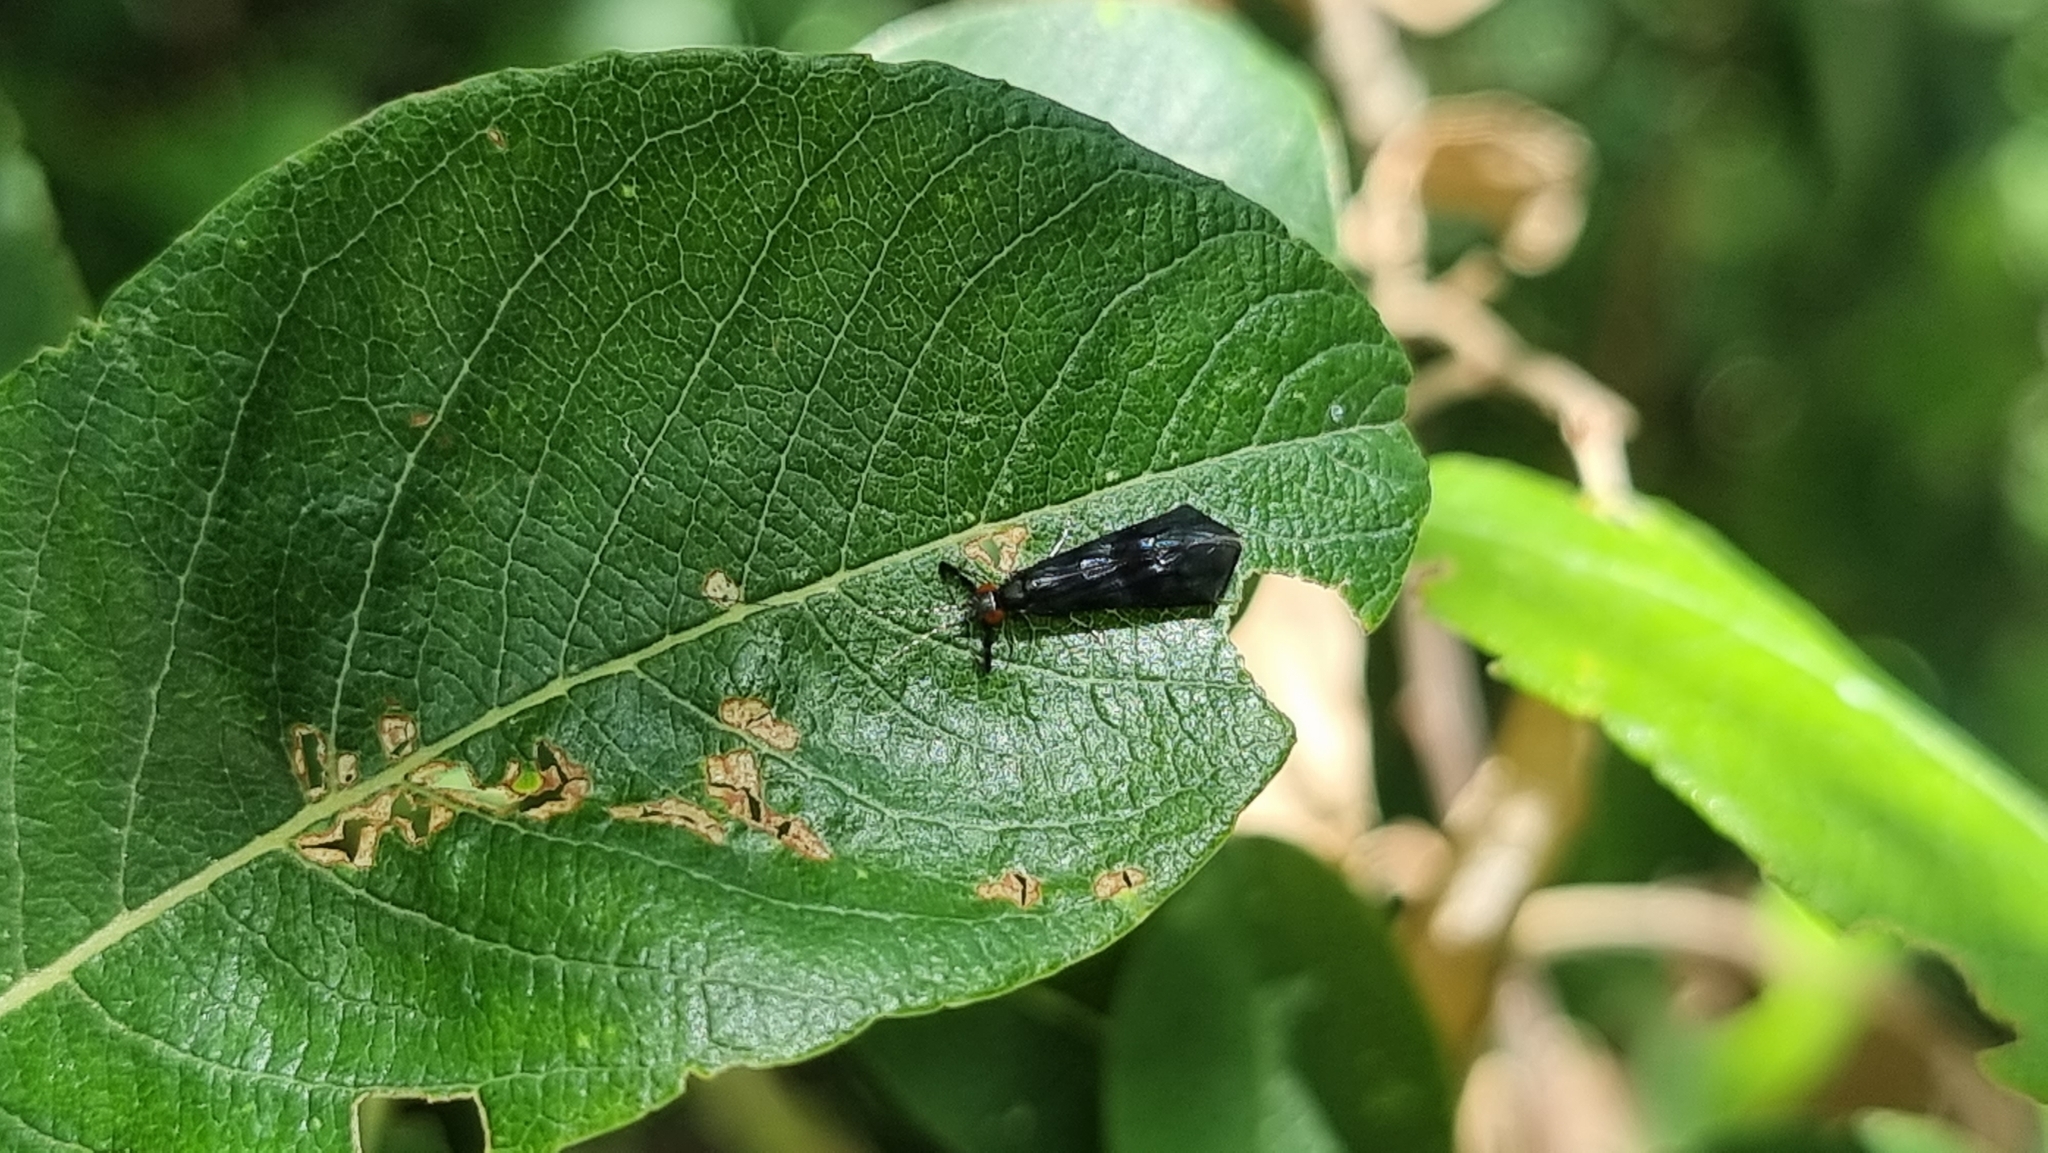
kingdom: Animalia
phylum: Arthropoda
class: Insecta
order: Trichoptera
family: Leptoceridae
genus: Mystacides
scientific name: Mystacides azureus
